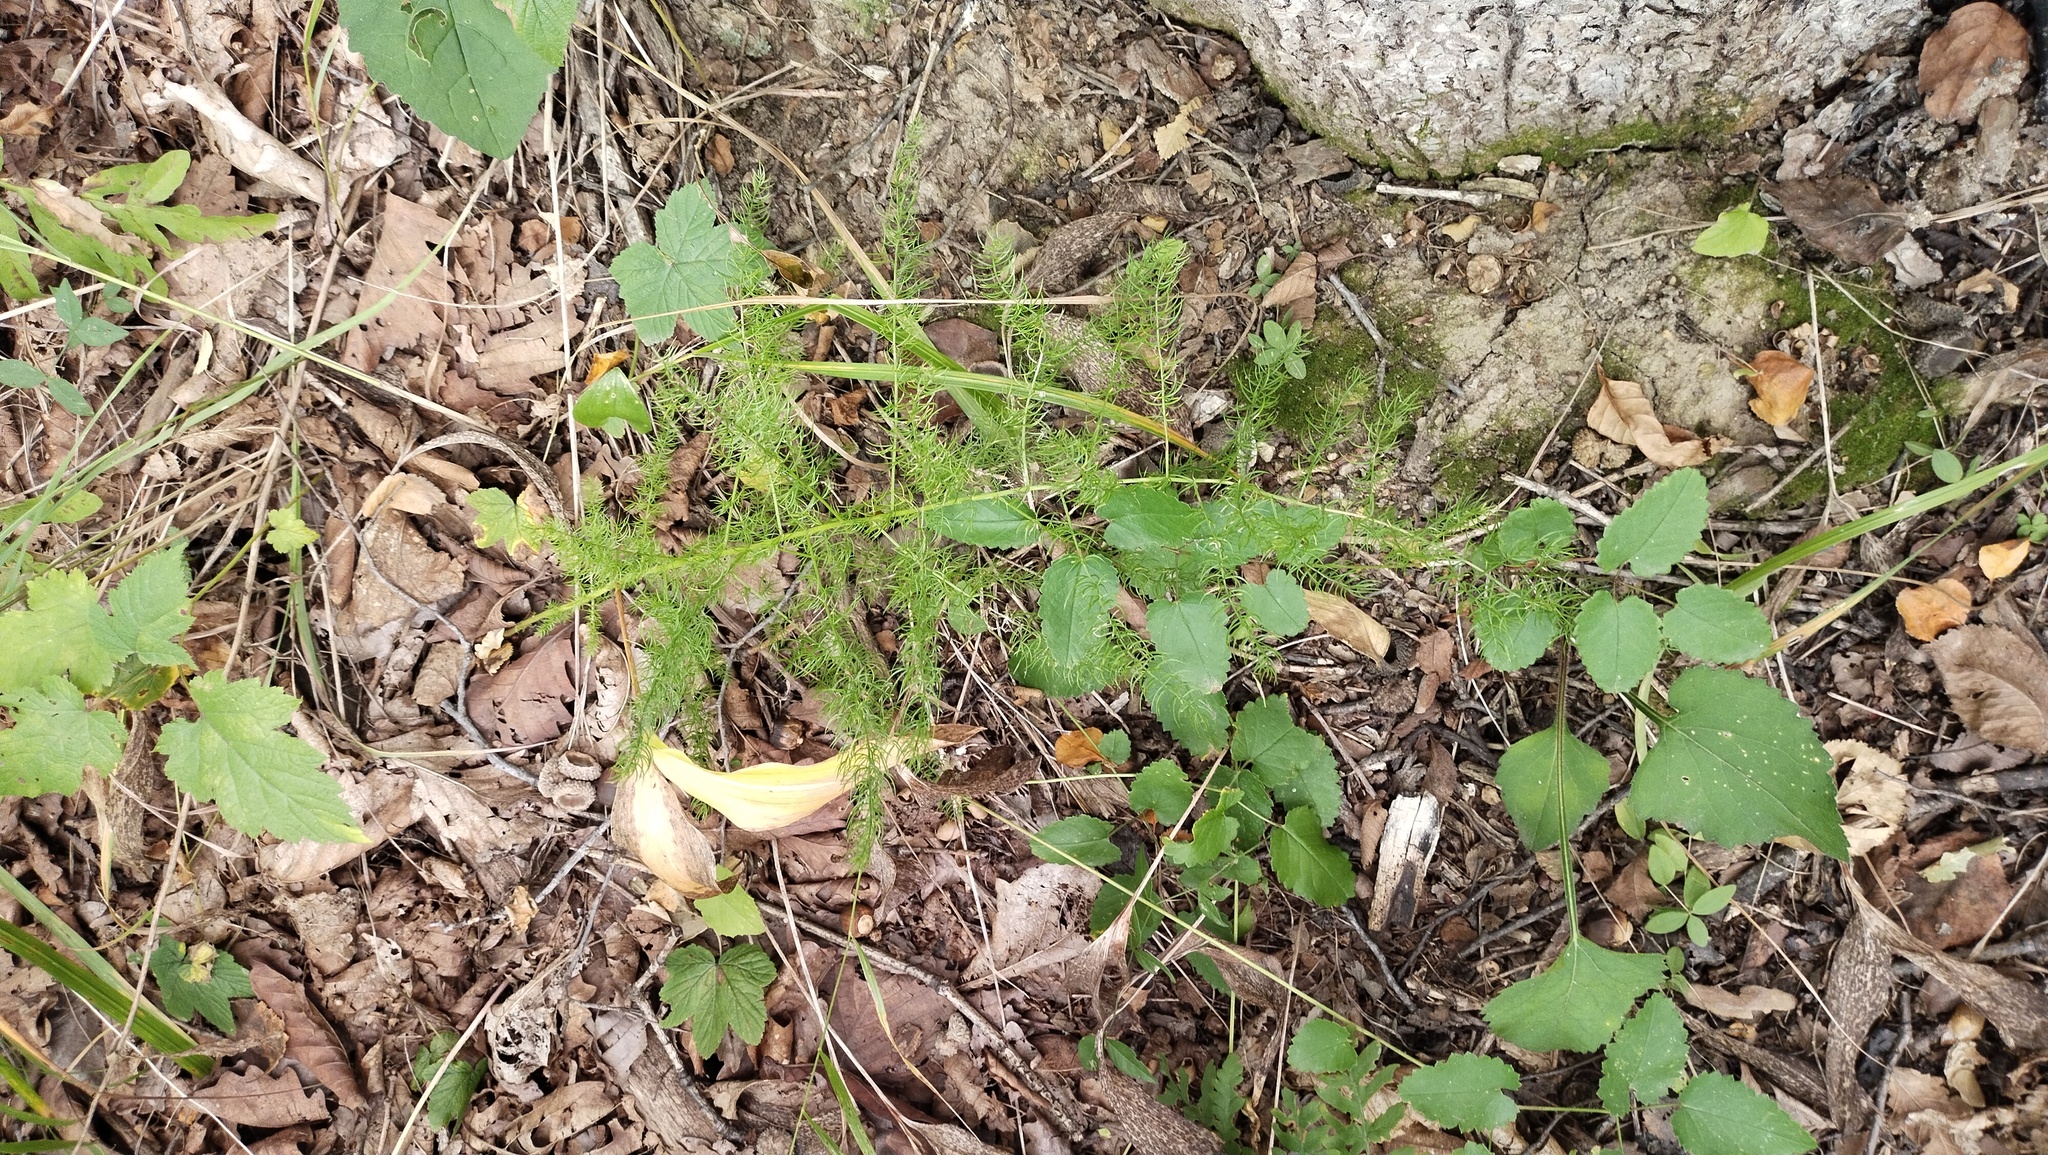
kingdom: Plantae
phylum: Tracheophyta
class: Liliopsida
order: Asparagales
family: Asparagaceae
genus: Asparagus
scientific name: Asparagus schoberioides
